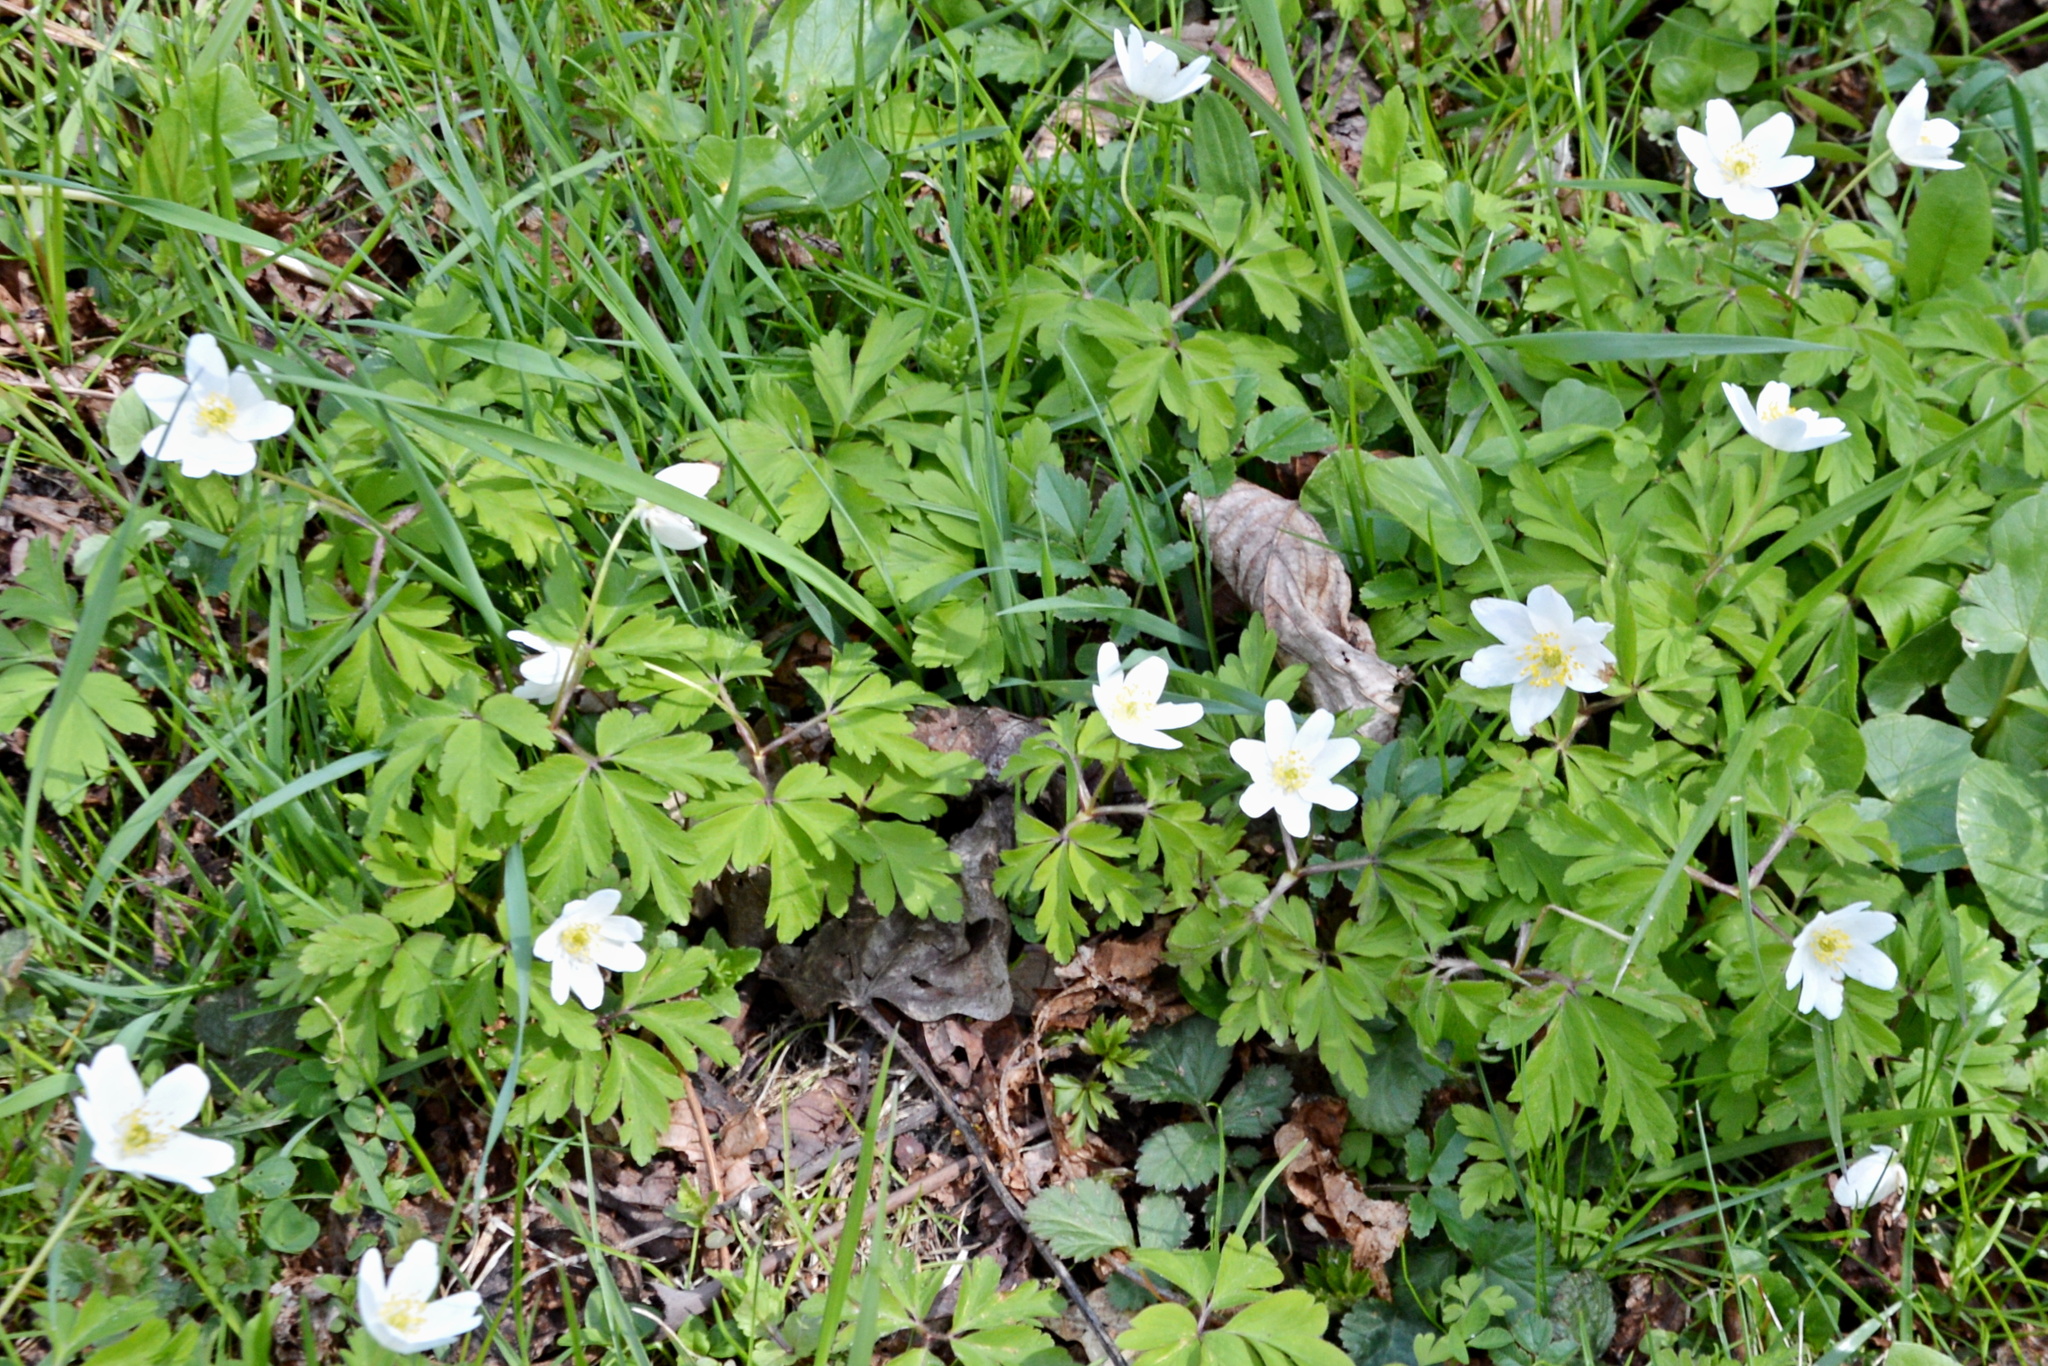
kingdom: Plantae
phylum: Tracheophyta
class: Magnoliopsida
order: Ranunculales
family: Ranunculaceae
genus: Anemone
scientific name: Anemone nemorosa
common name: Wood anemone
